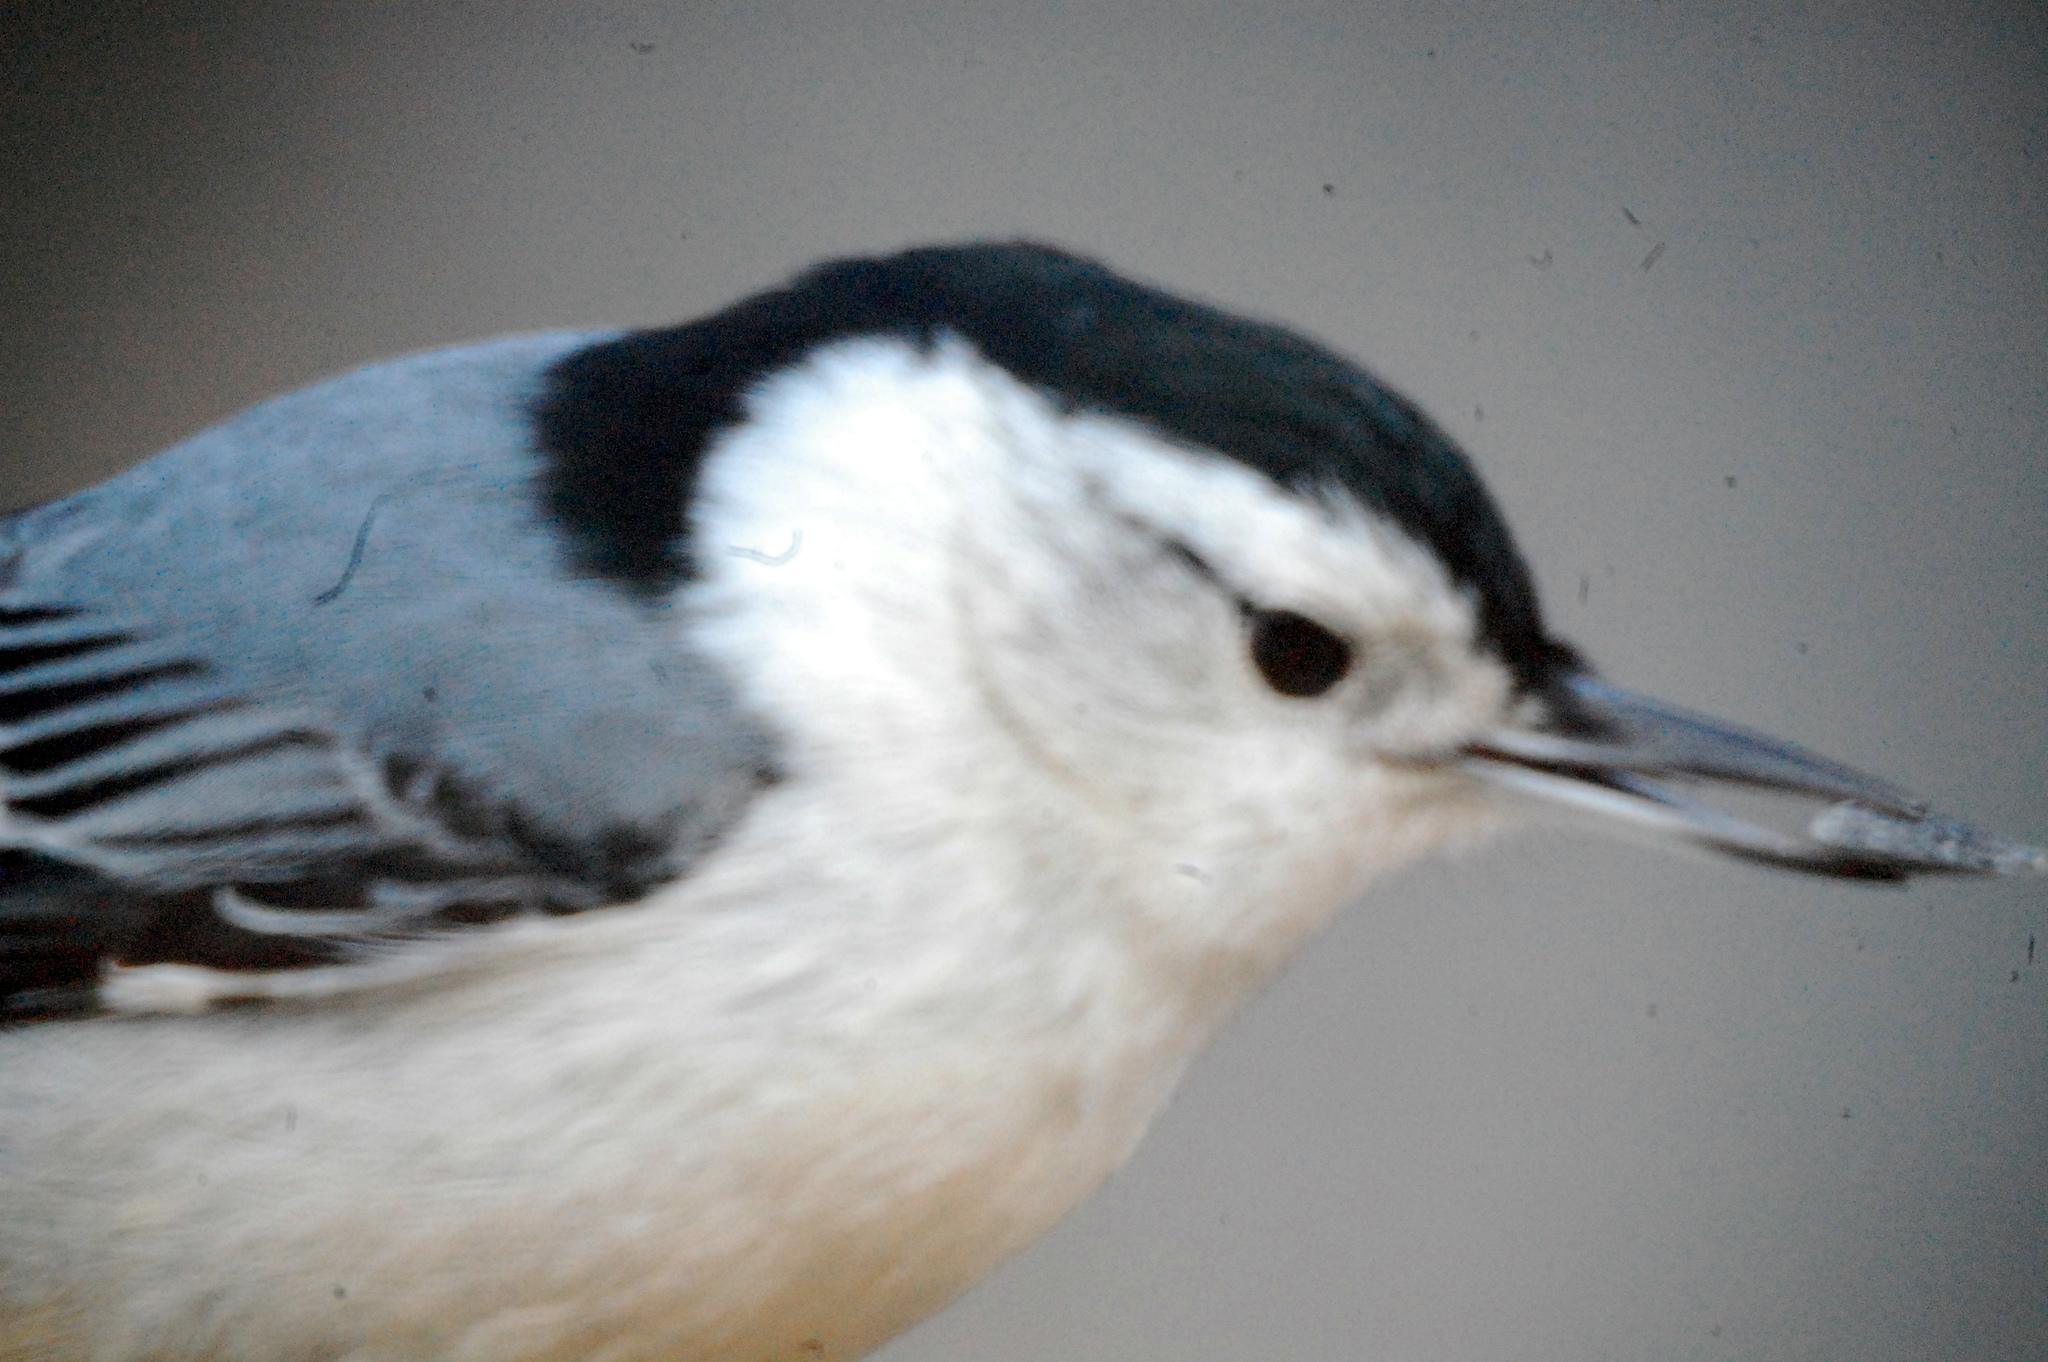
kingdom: Animalia
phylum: Chordata
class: Aves
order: Passeriformes
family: Sittidae
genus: Sitta
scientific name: Sitta carolinensis
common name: White-breasted nuthatch
